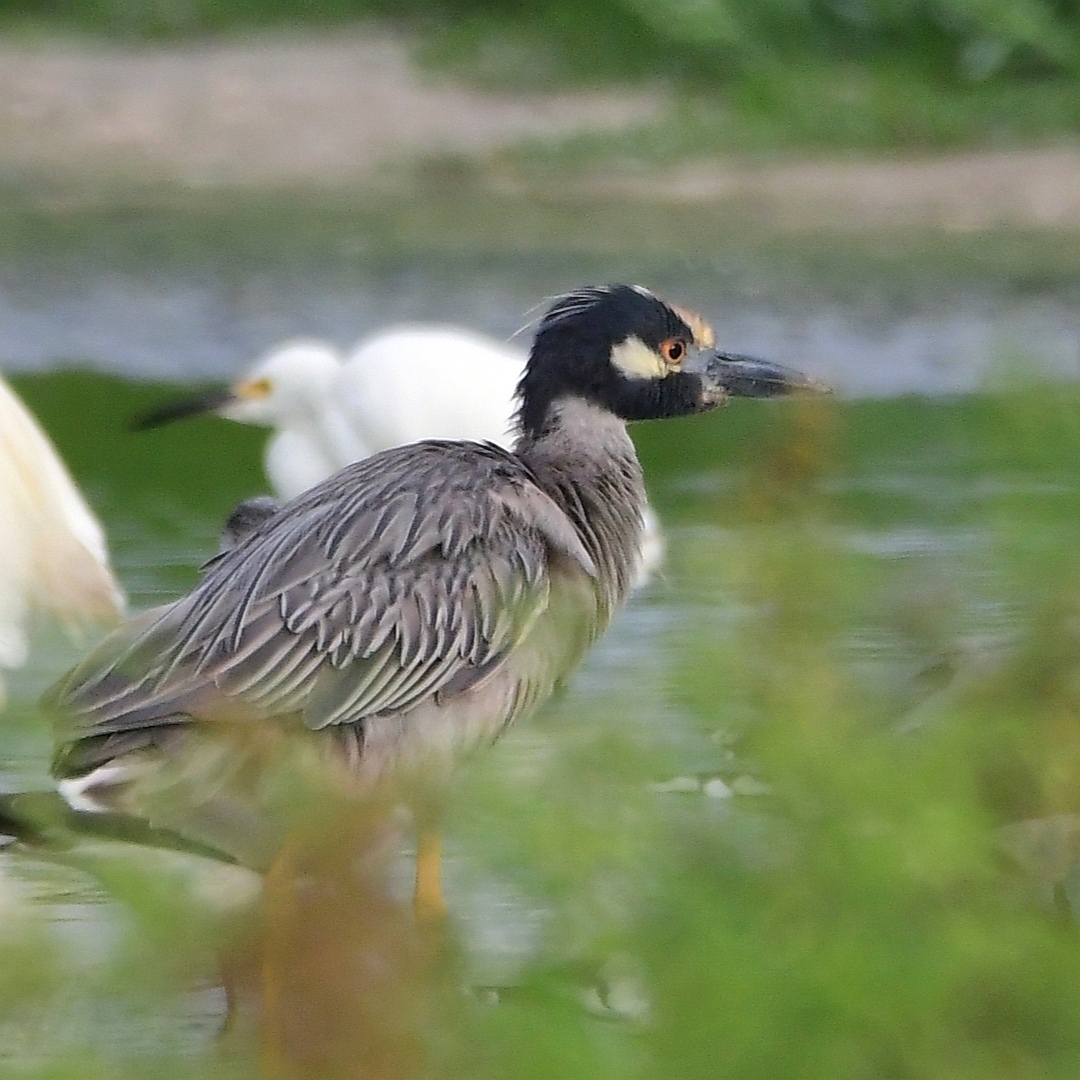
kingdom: Animalia
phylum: Chordata
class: Aves
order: Pelecaniformes
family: Ardeidae
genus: Nyctanassa
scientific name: Nyctanassa violacea
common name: Yellow-crowned night heron
